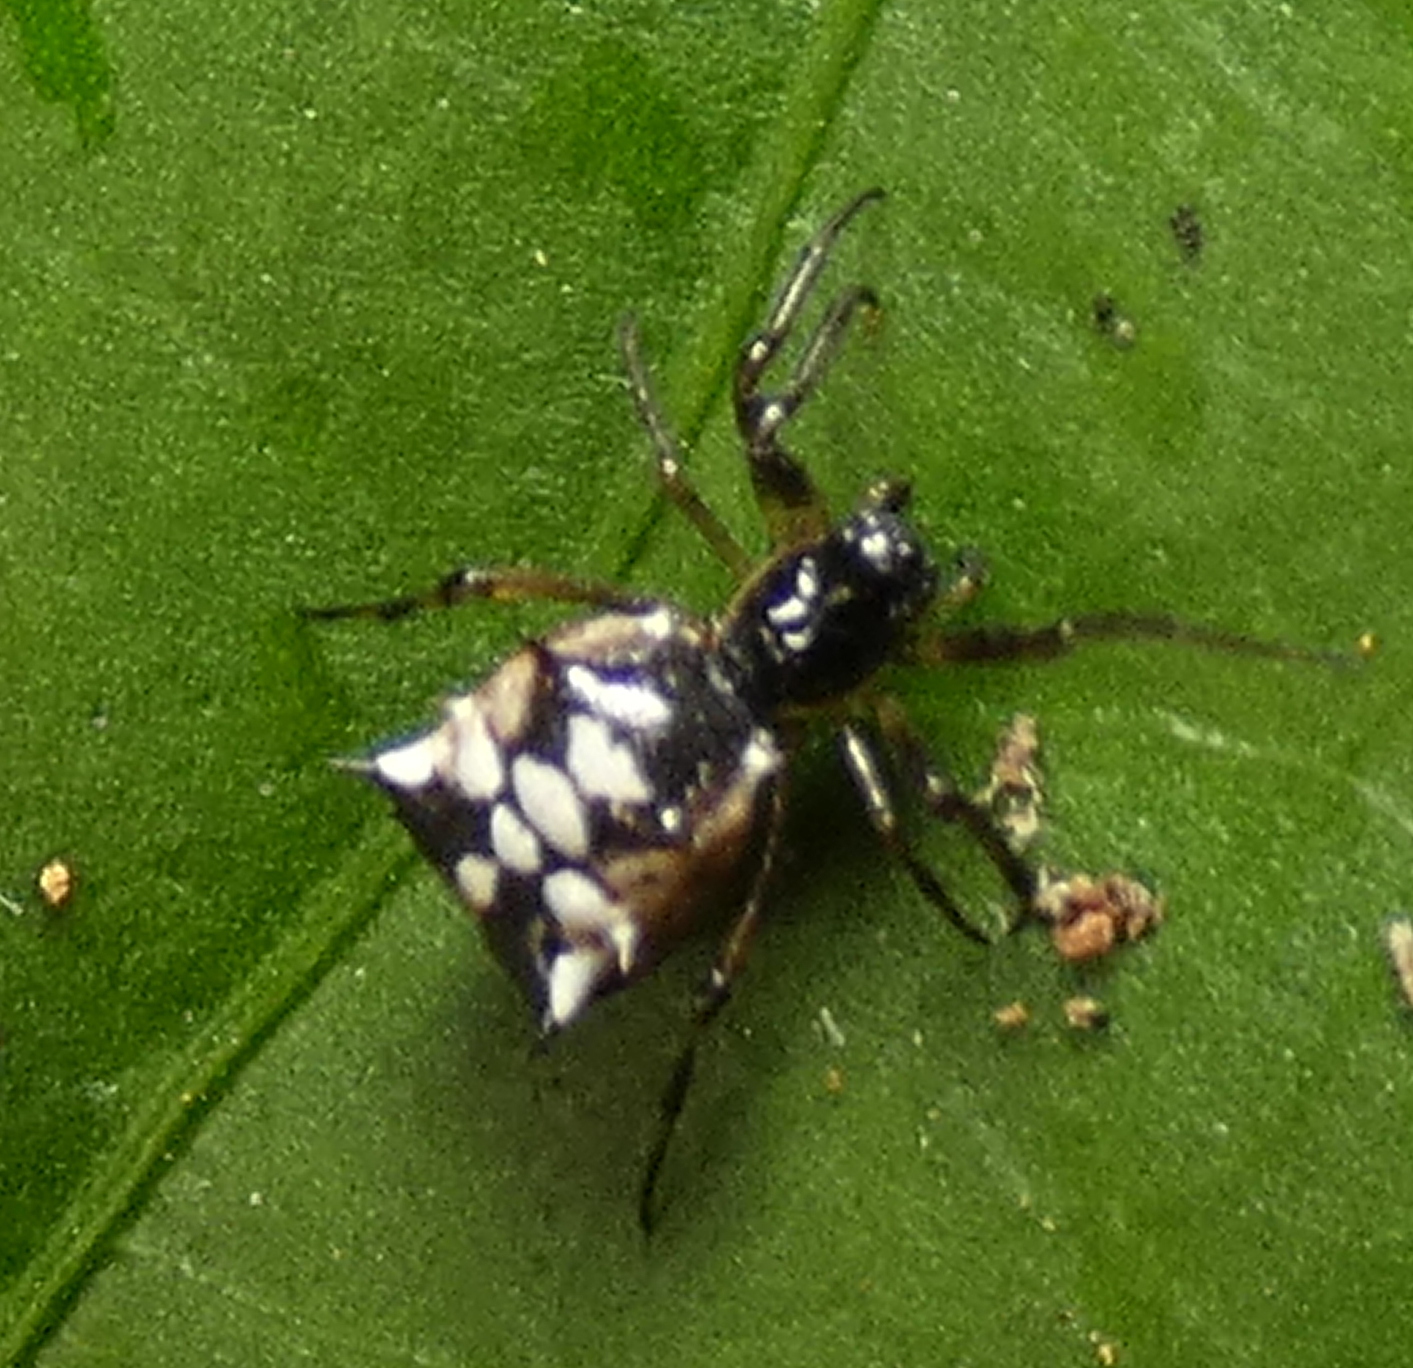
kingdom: Animalia
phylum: Arthropoda
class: Arachnida
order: Araneae
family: Araneidae
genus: Micrathena
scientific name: Micrathena picta
